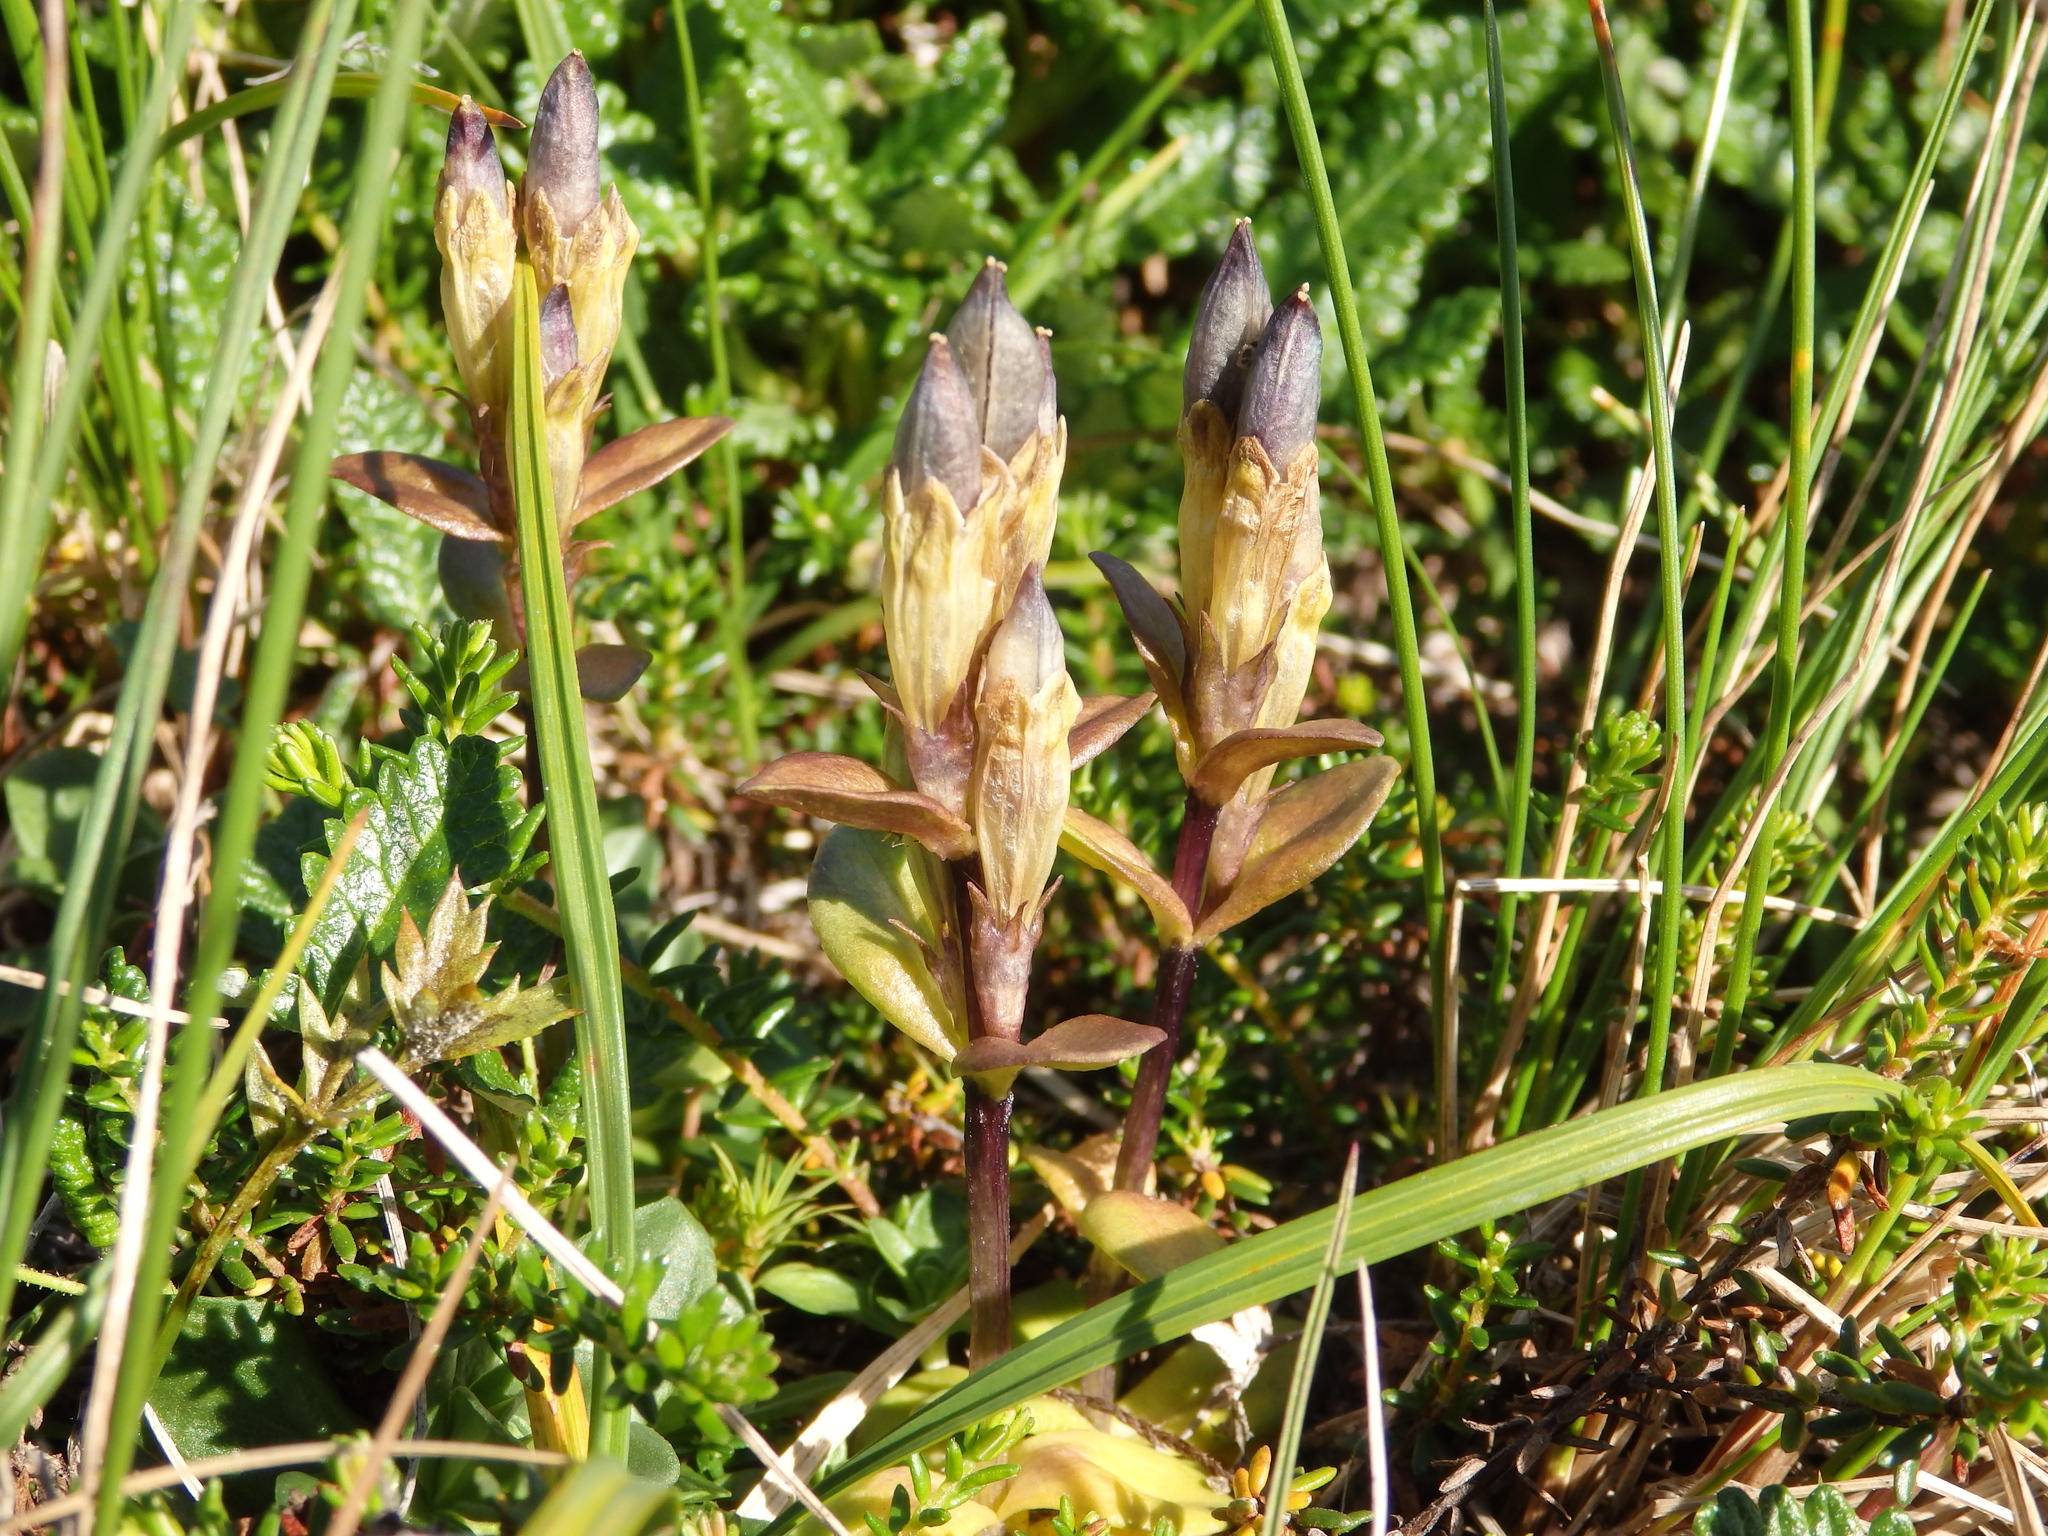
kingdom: Plantae
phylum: Tracheophyta
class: Magnoliopsida
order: Gentianales
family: Gentianaceae
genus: Gentiana
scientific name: Gentiana glauca
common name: Alpine gentian
